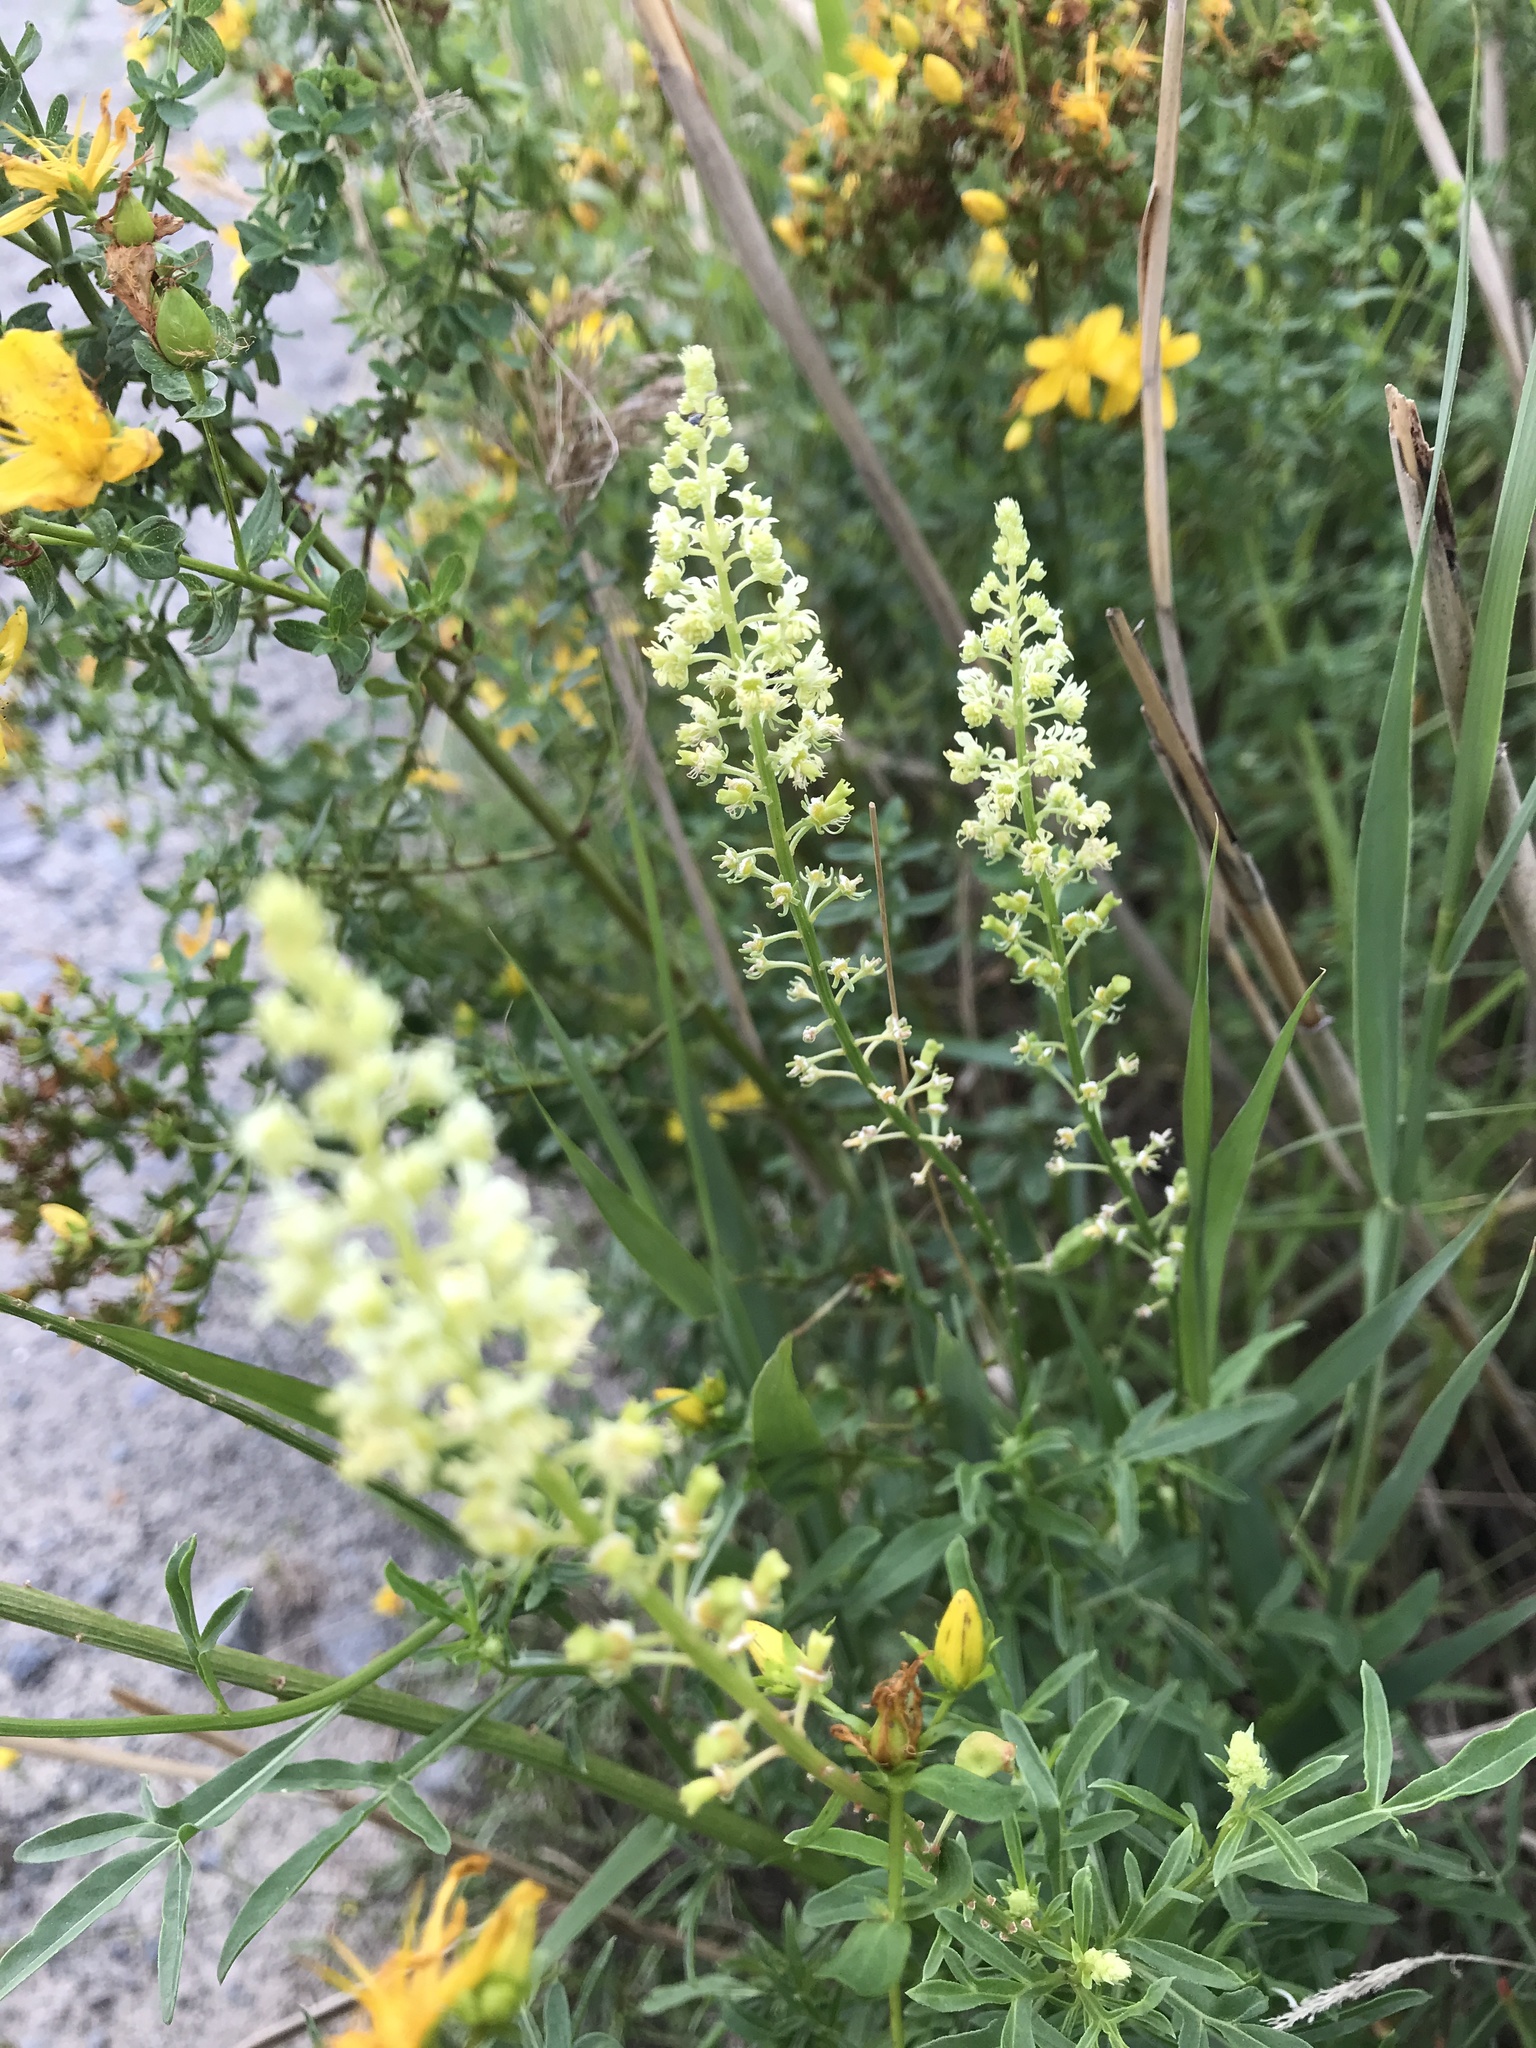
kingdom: Plantae
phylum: Tracheophyta
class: Magnoliopsida
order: Brassicales
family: Resedaceae
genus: Reseda
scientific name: Reseda lutea
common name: Wild mignonette
